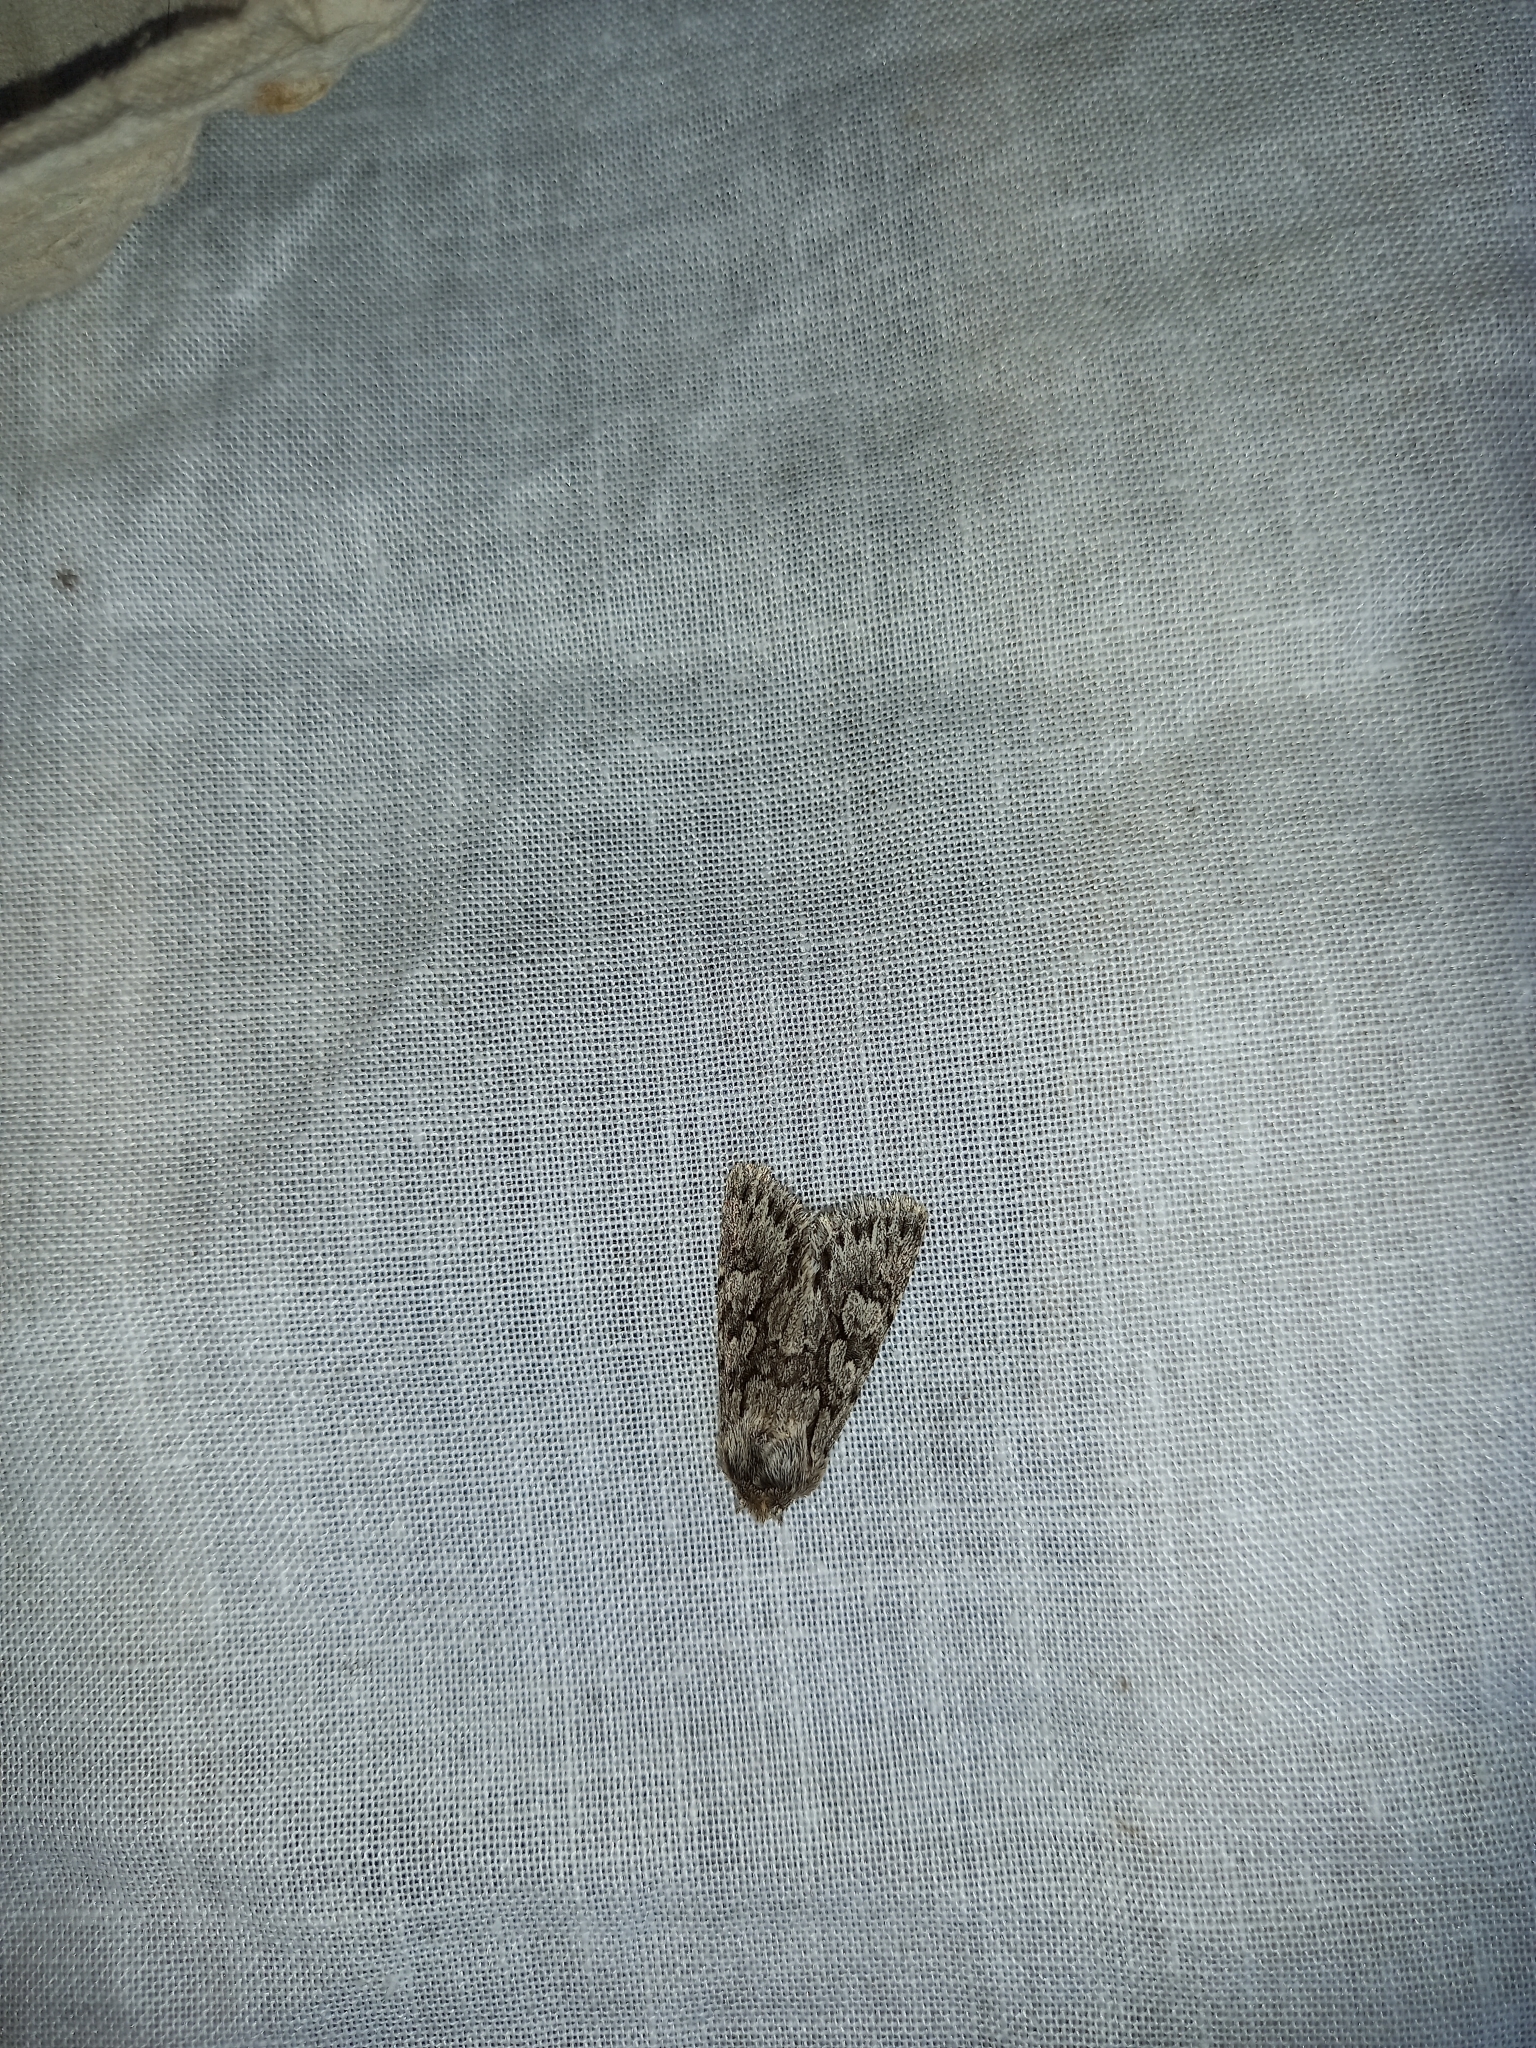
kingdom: Animalia
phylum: Arthropoda
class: Insecta
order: Lepidoptera
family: Noctuidae
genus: Xylocampa
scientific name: Xylocampa areola
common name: Early grey
